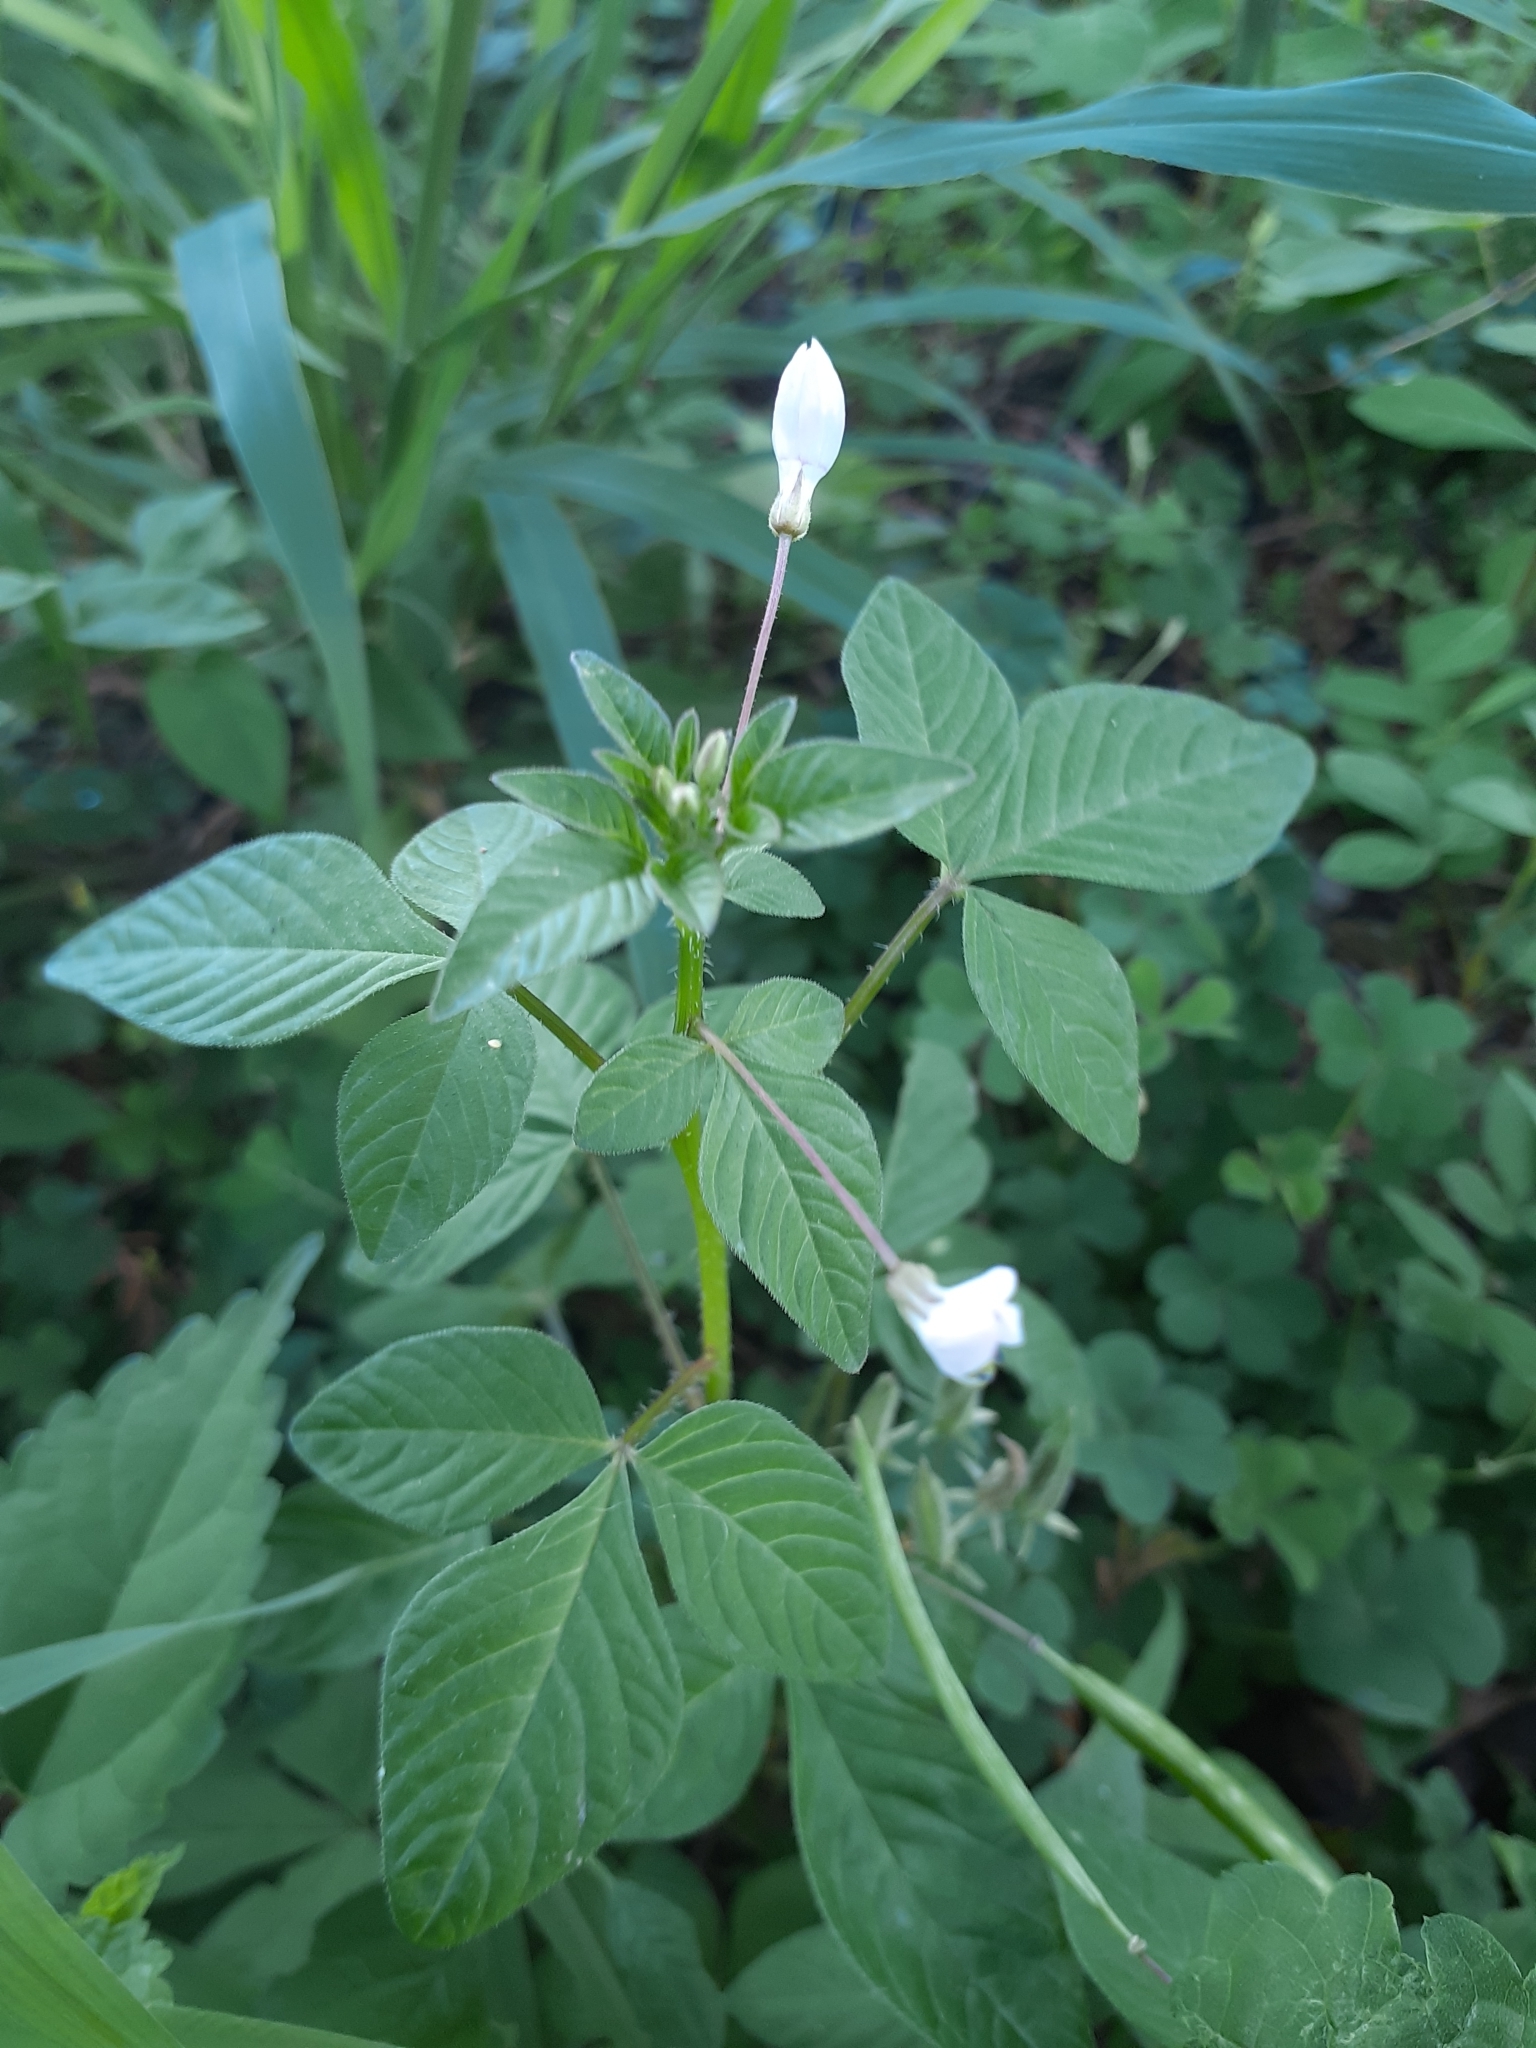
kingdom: Plantae
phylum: Tracheophyta
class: Magnoliopsida
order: Brassicales
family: Cleomaceae
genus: Sieruela
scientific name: Sieruela rutidosperma
